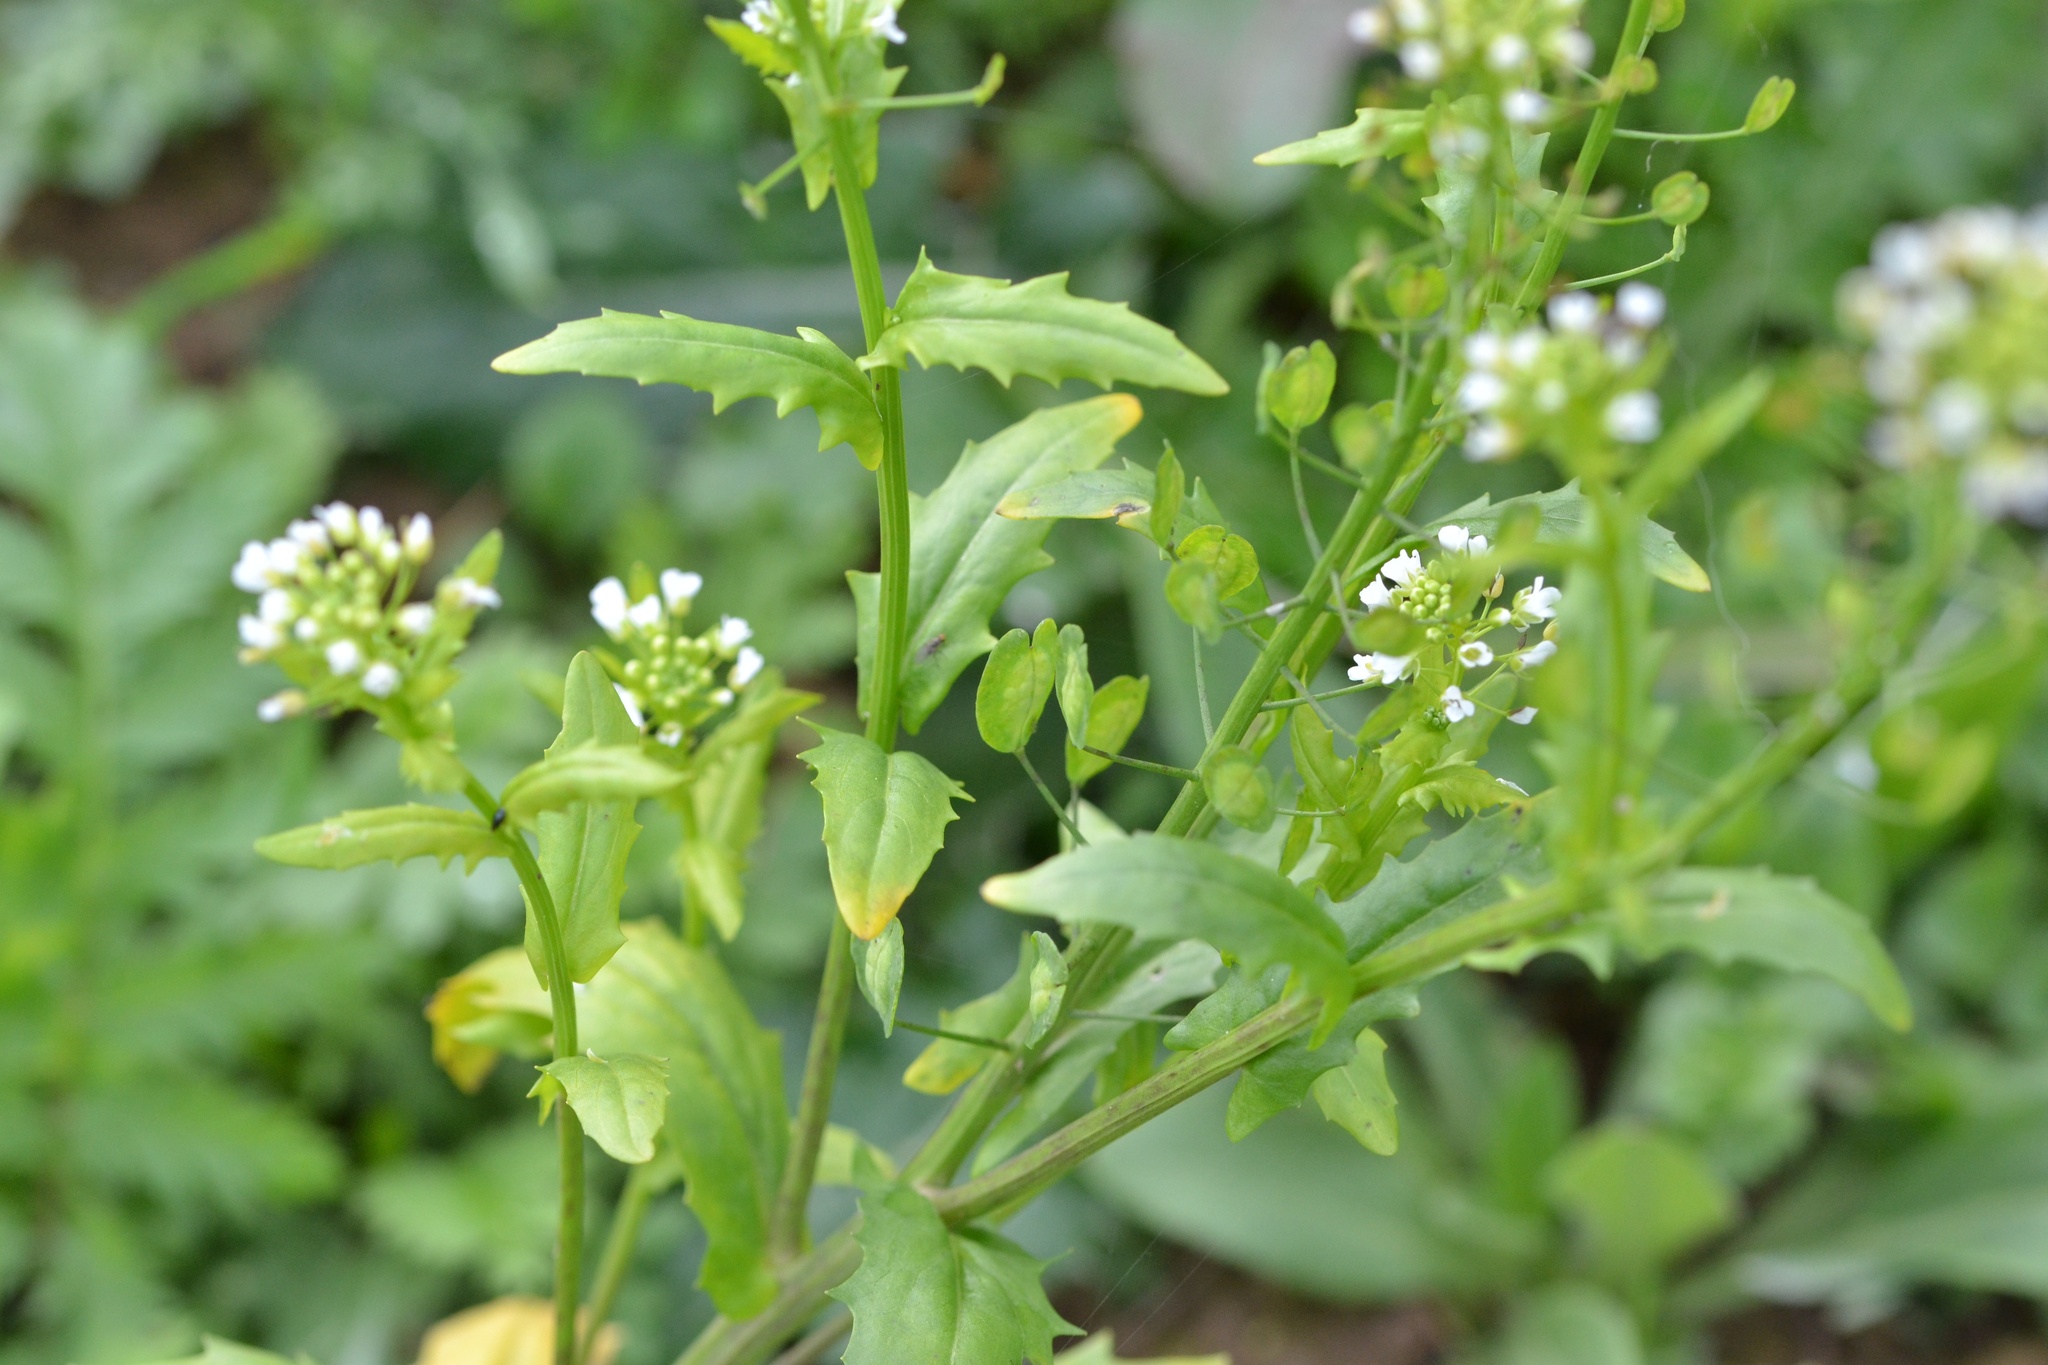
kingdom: Plantae
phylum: Tracheophyta
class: Magnoliopsida
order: Brassicales
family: Brassicaceae
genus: Thlaspi
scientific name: Thlaspi arvense
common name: Field pennycress
